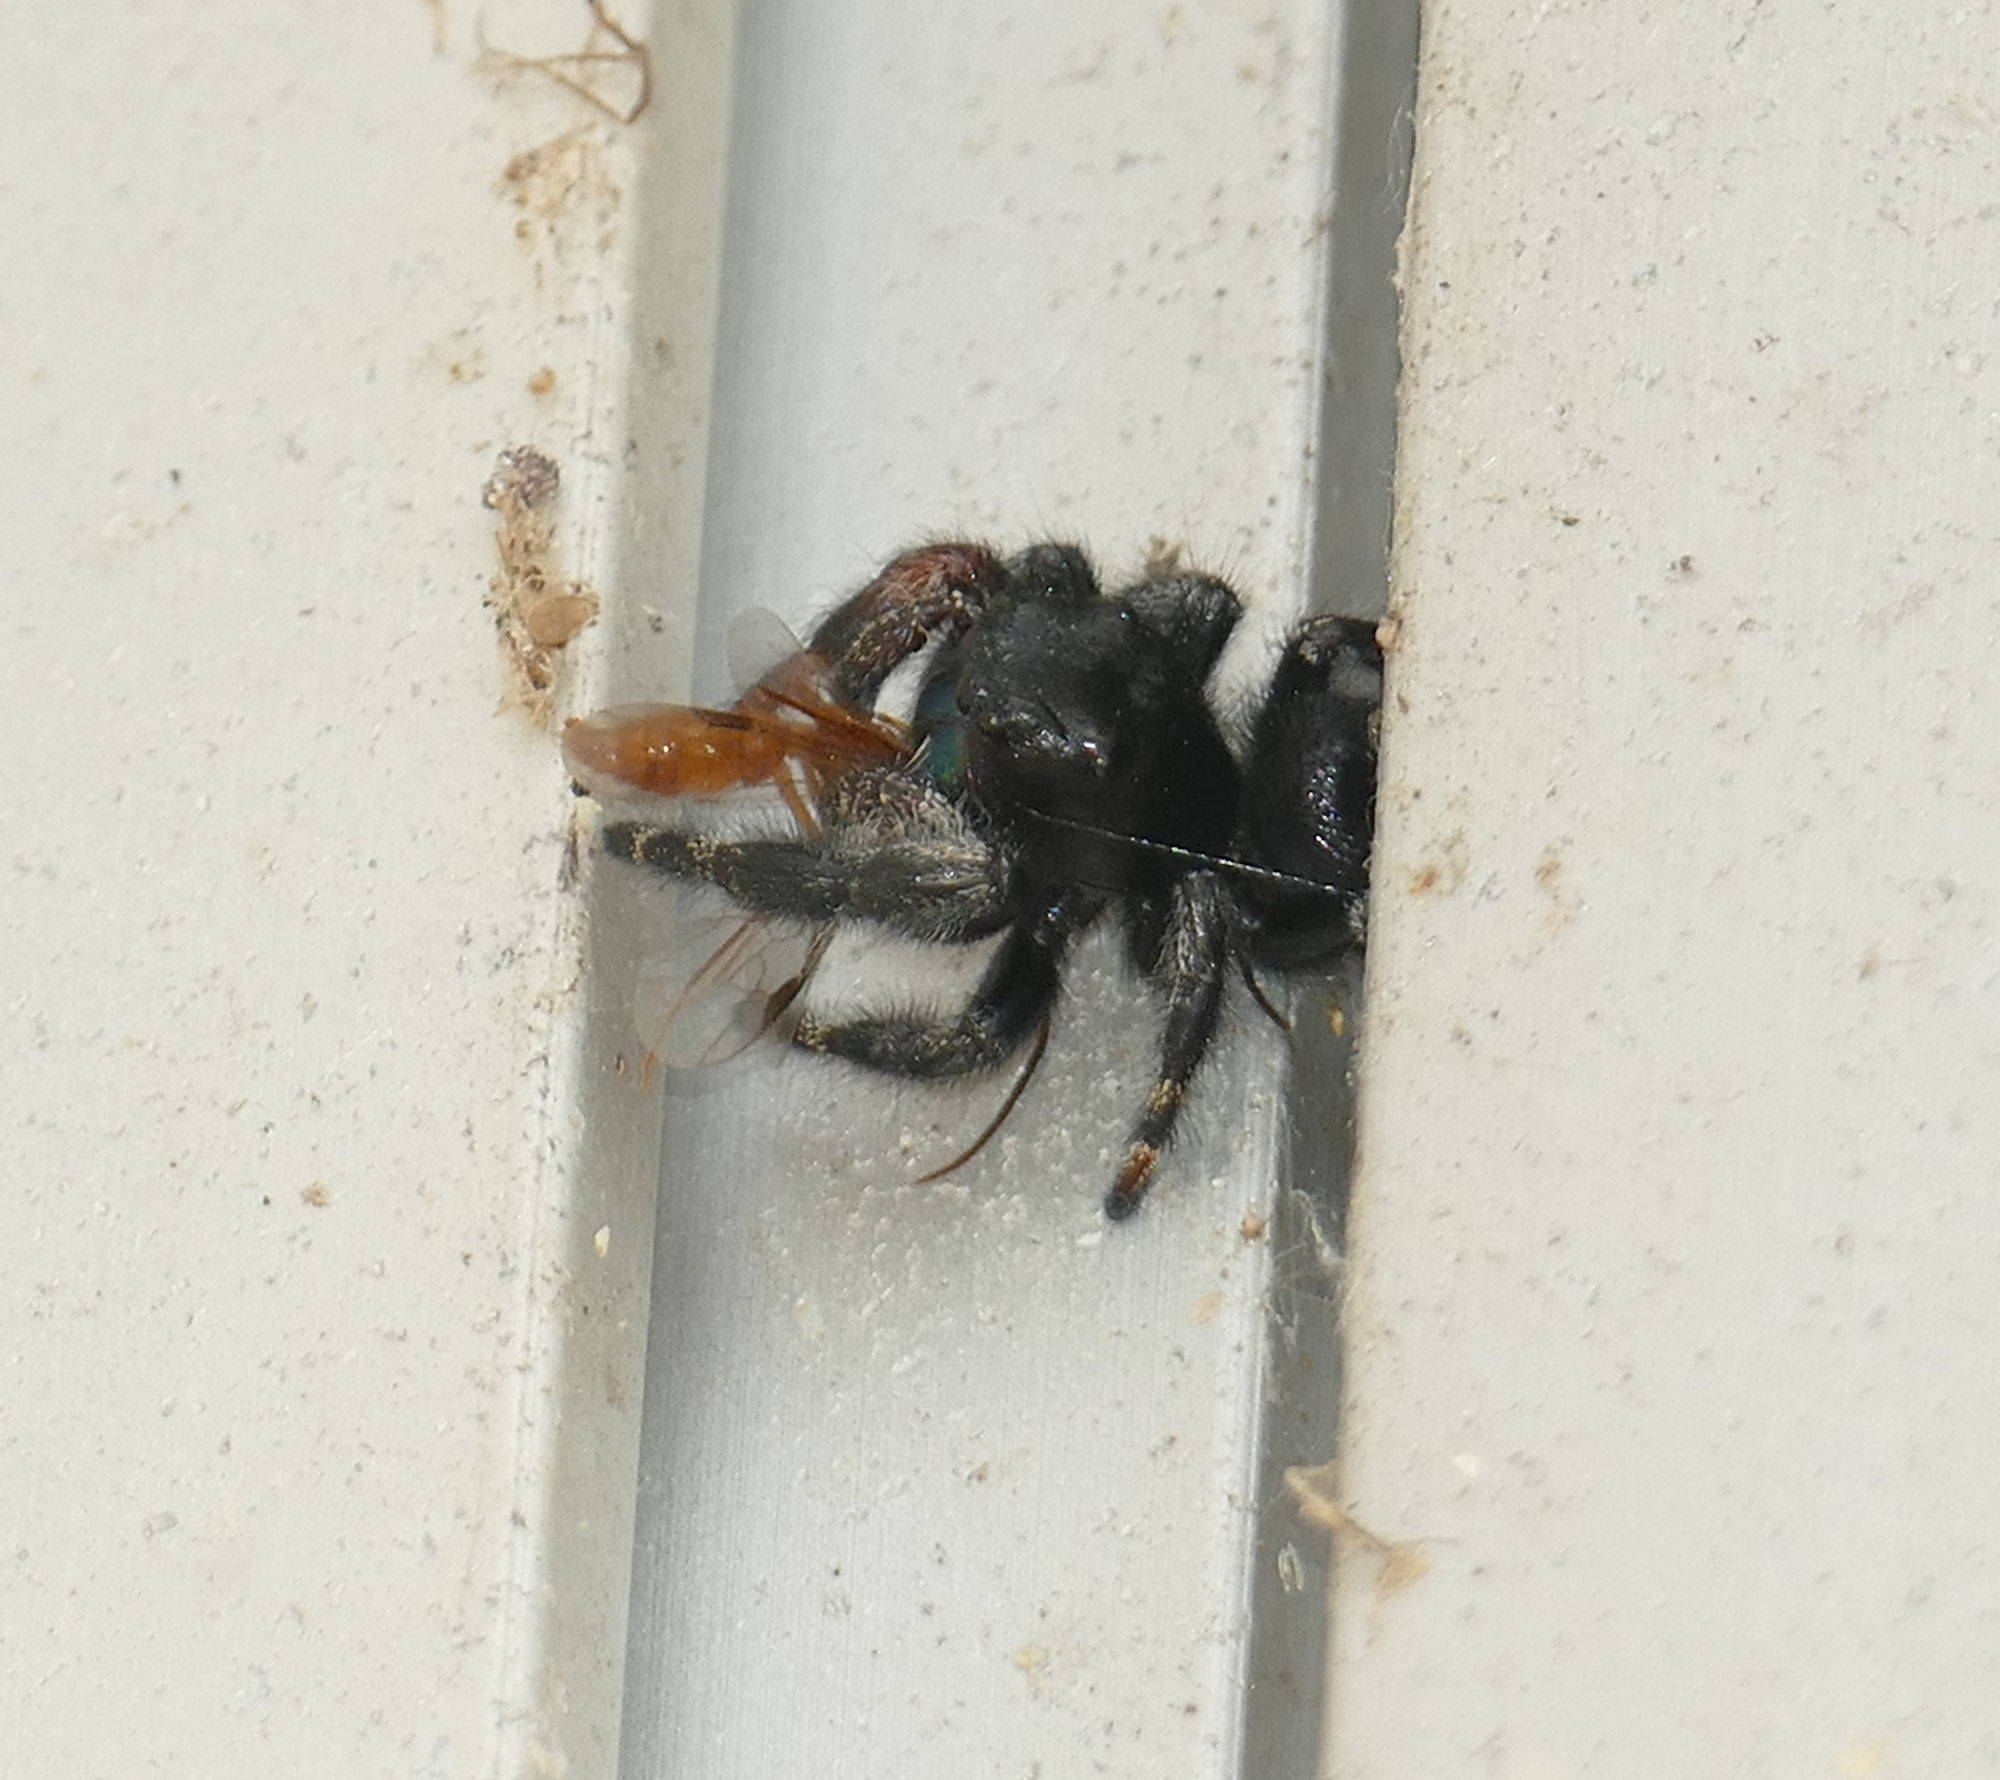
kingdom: Animalia
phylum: Arthropoda
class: Arachnida
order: Araneae
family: Salticidae
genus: Phidippus
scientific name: Phidippus audax
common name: Bold jumper
